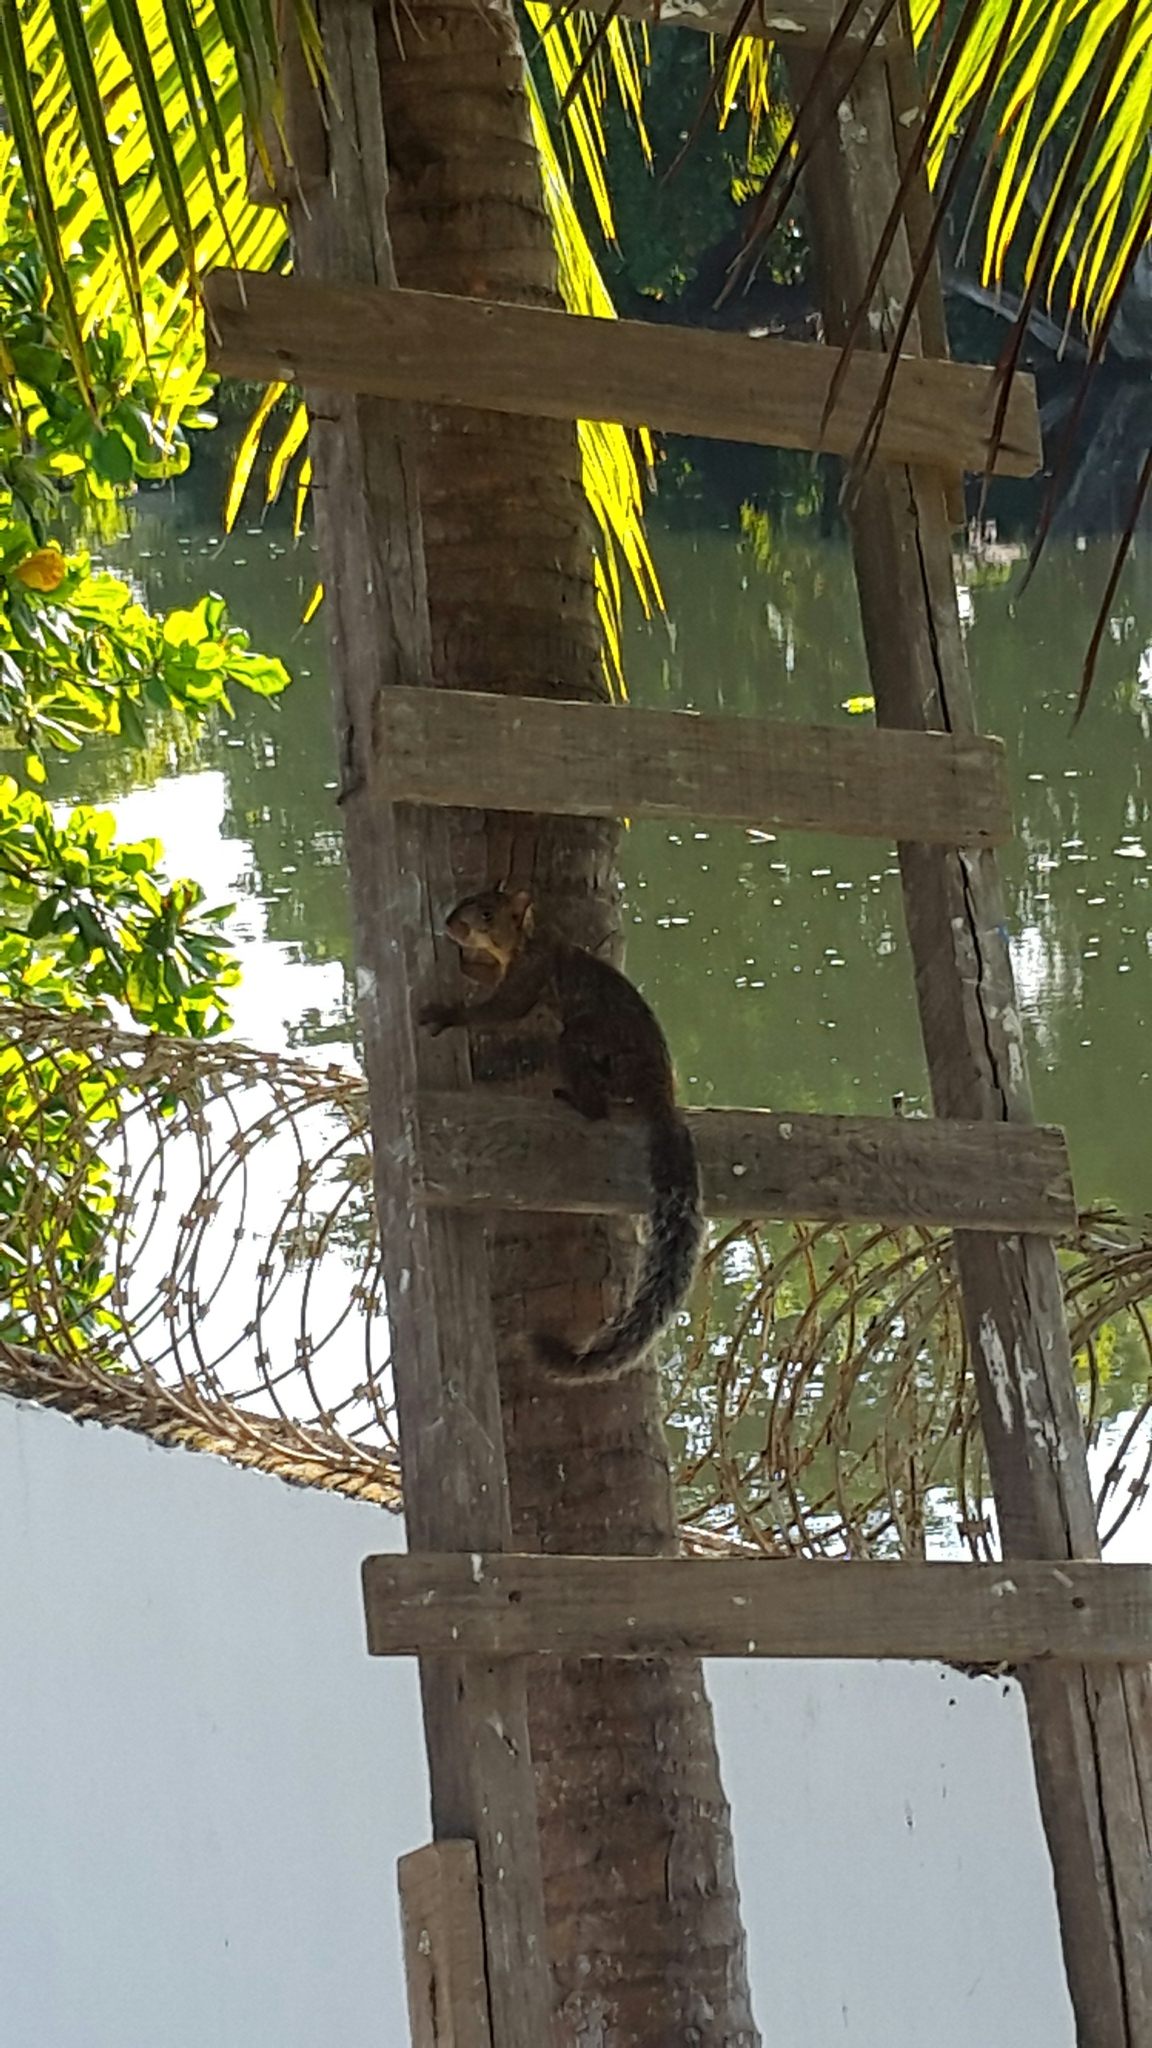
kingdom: Animalia
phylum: Chordata
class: Mammalia
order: Rodentia
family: Sciuridae
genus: Sciurus
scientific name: Sciurus variegatoides
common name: Variegated squirrel
